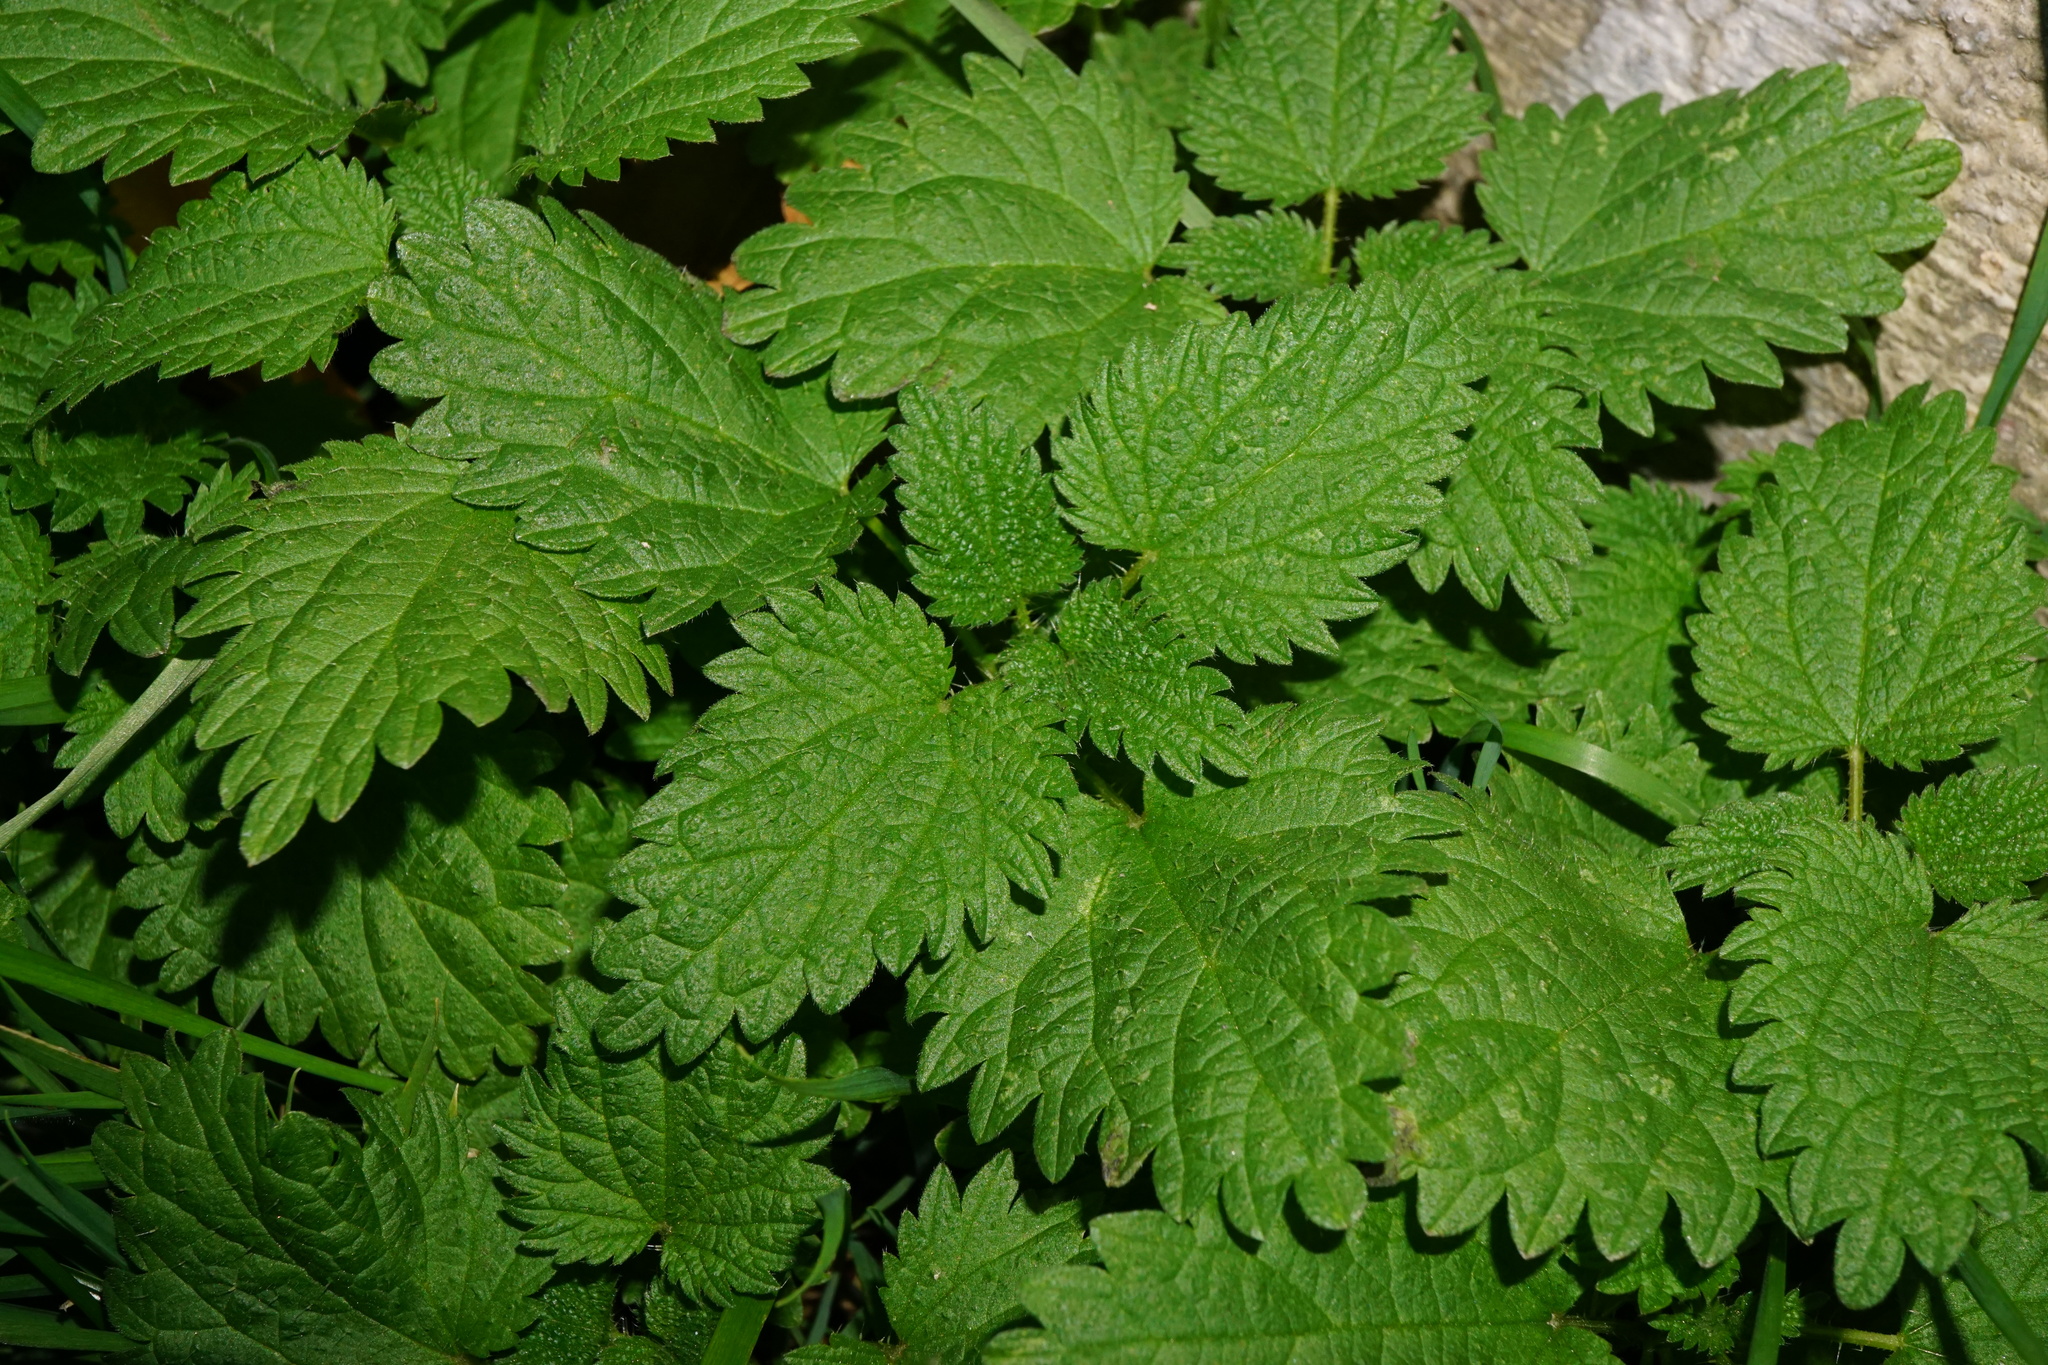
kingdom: Plantae
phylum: Tracheophyta
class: Magnoliopsida
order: Rosales
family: Urticaceae
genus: Urtica
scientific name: Urtica dioica
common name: Common nettle
